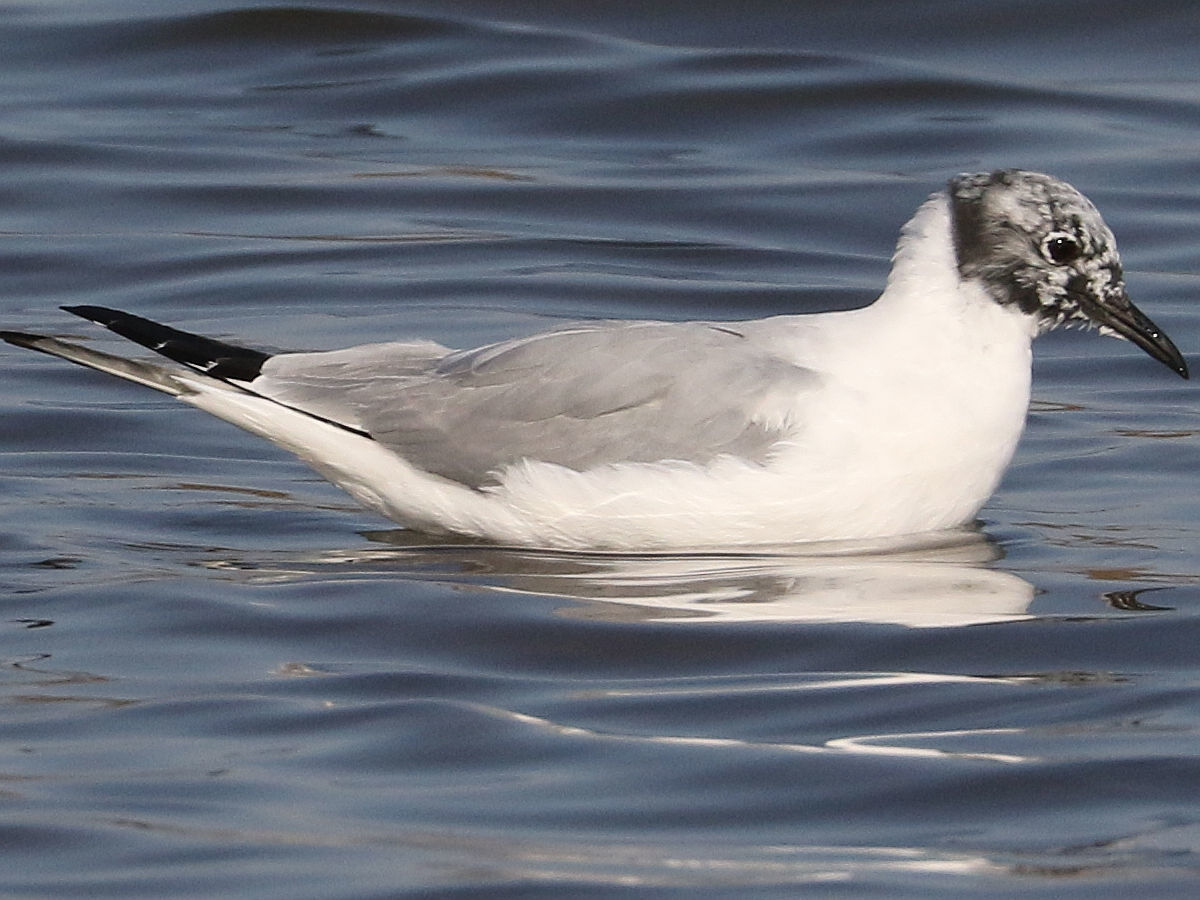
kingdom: Animalia
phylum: Chordata
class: Aves
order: Charadriiformes
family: Laridae
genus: Chroicocephalus
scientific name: Chroicocephalus philadelphia
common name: Bonaparte's gull
